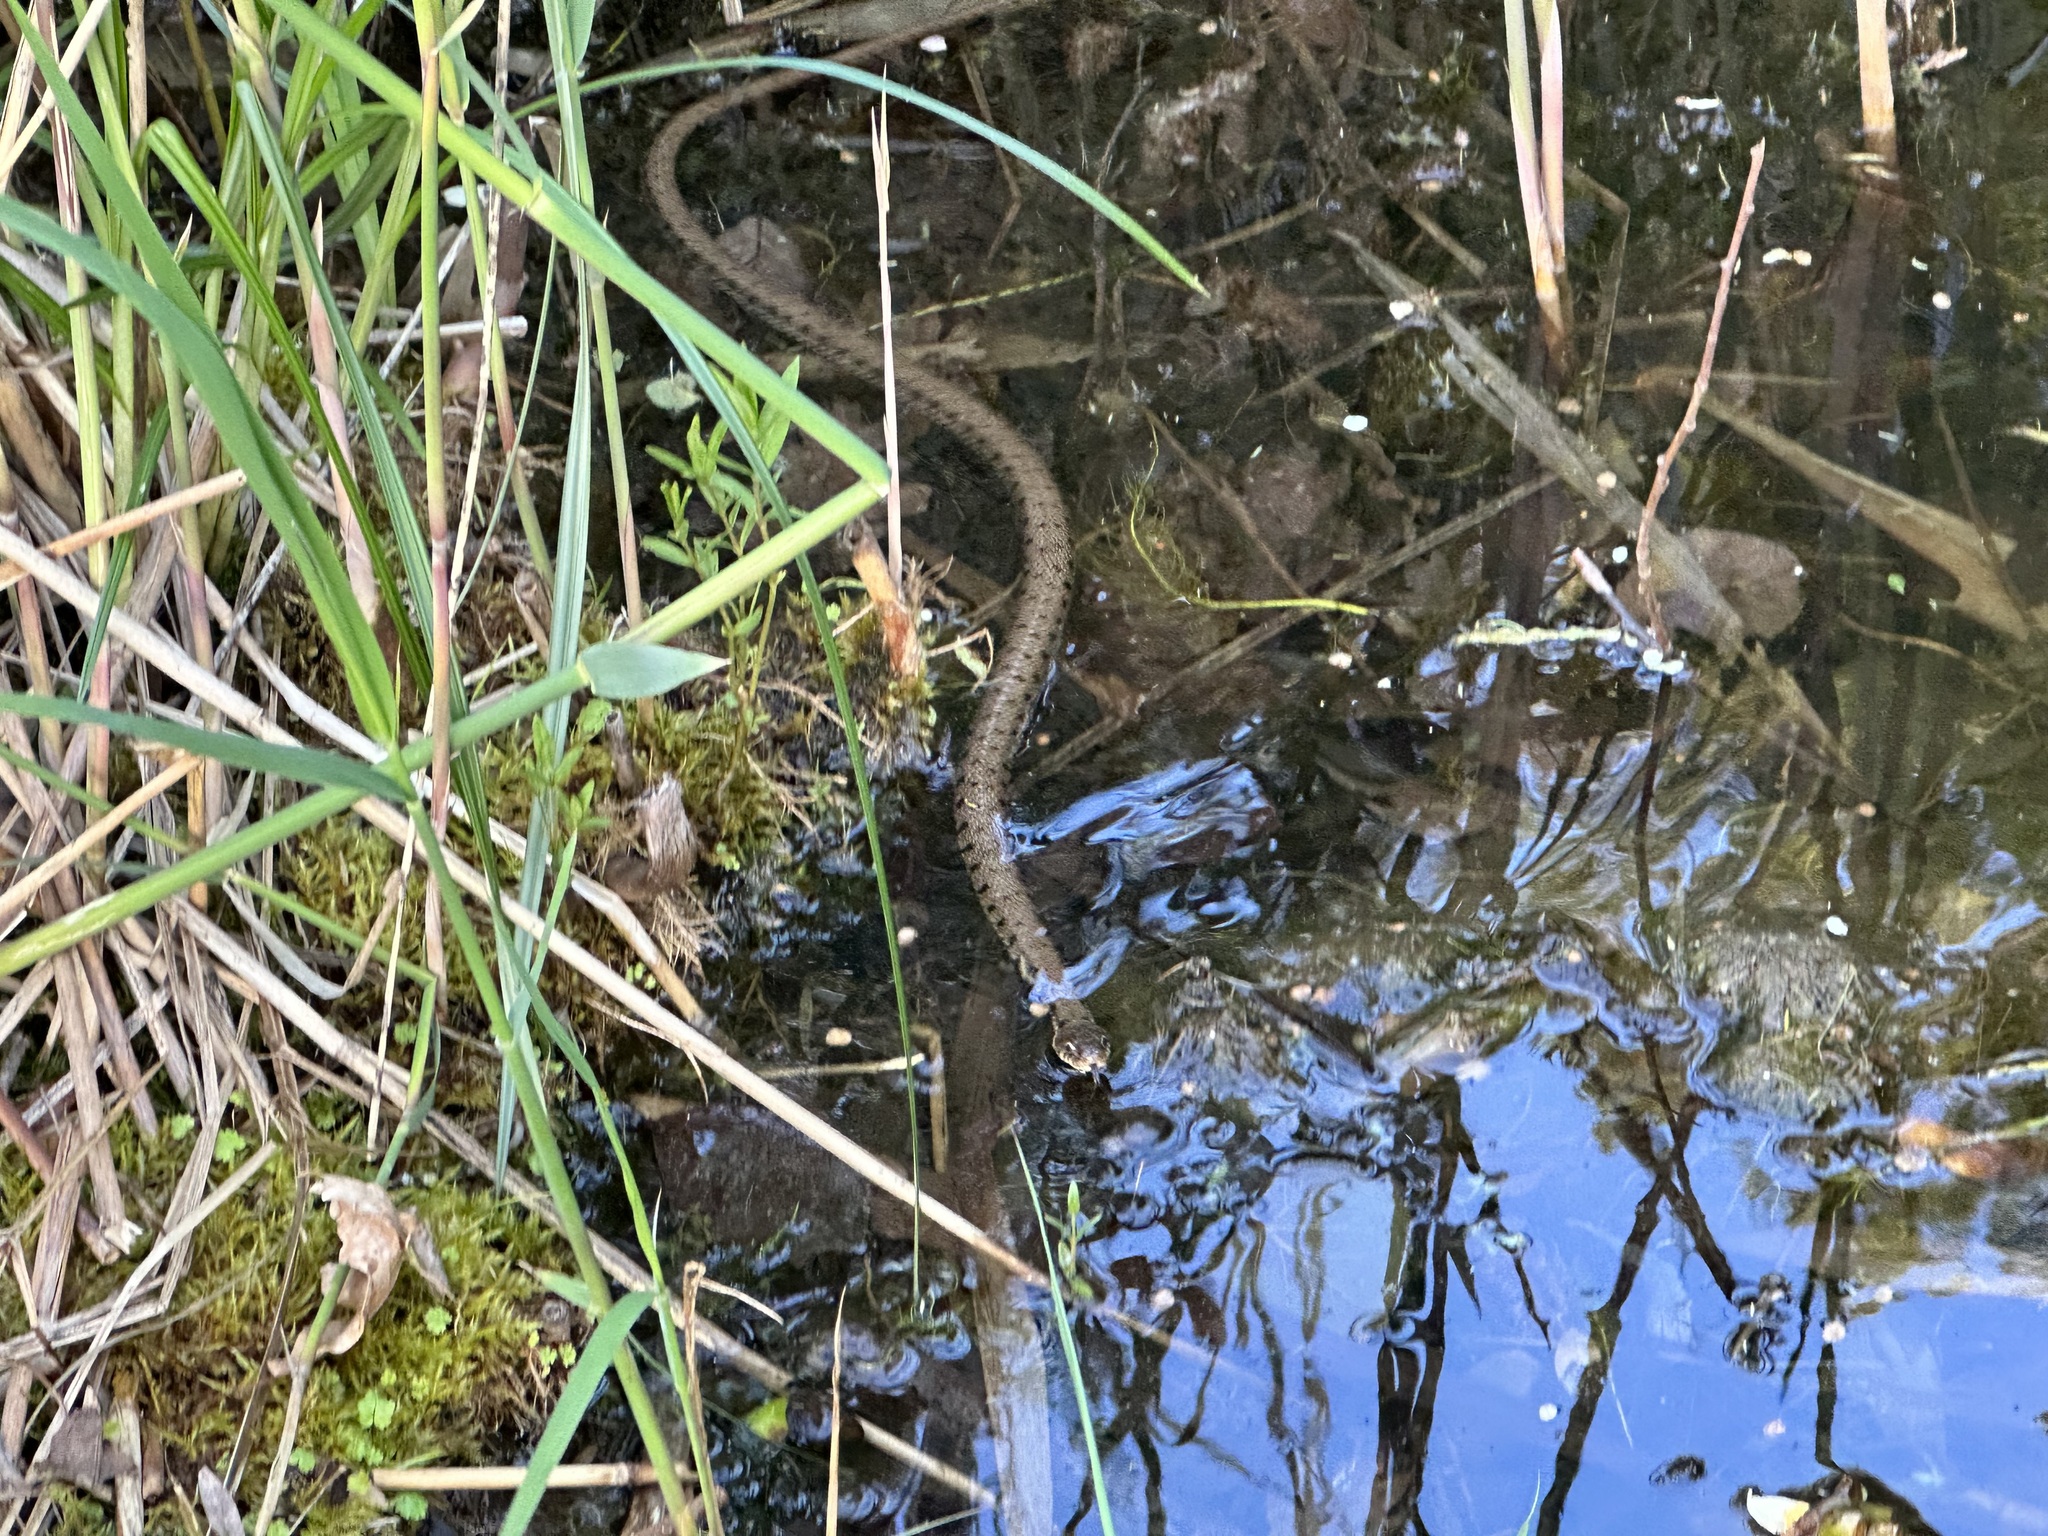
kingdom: Animalia
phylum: Chordata
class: Squamata
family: Colubridae
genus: Natrix
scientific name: Natrix helvetica
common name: Banded grass snake
